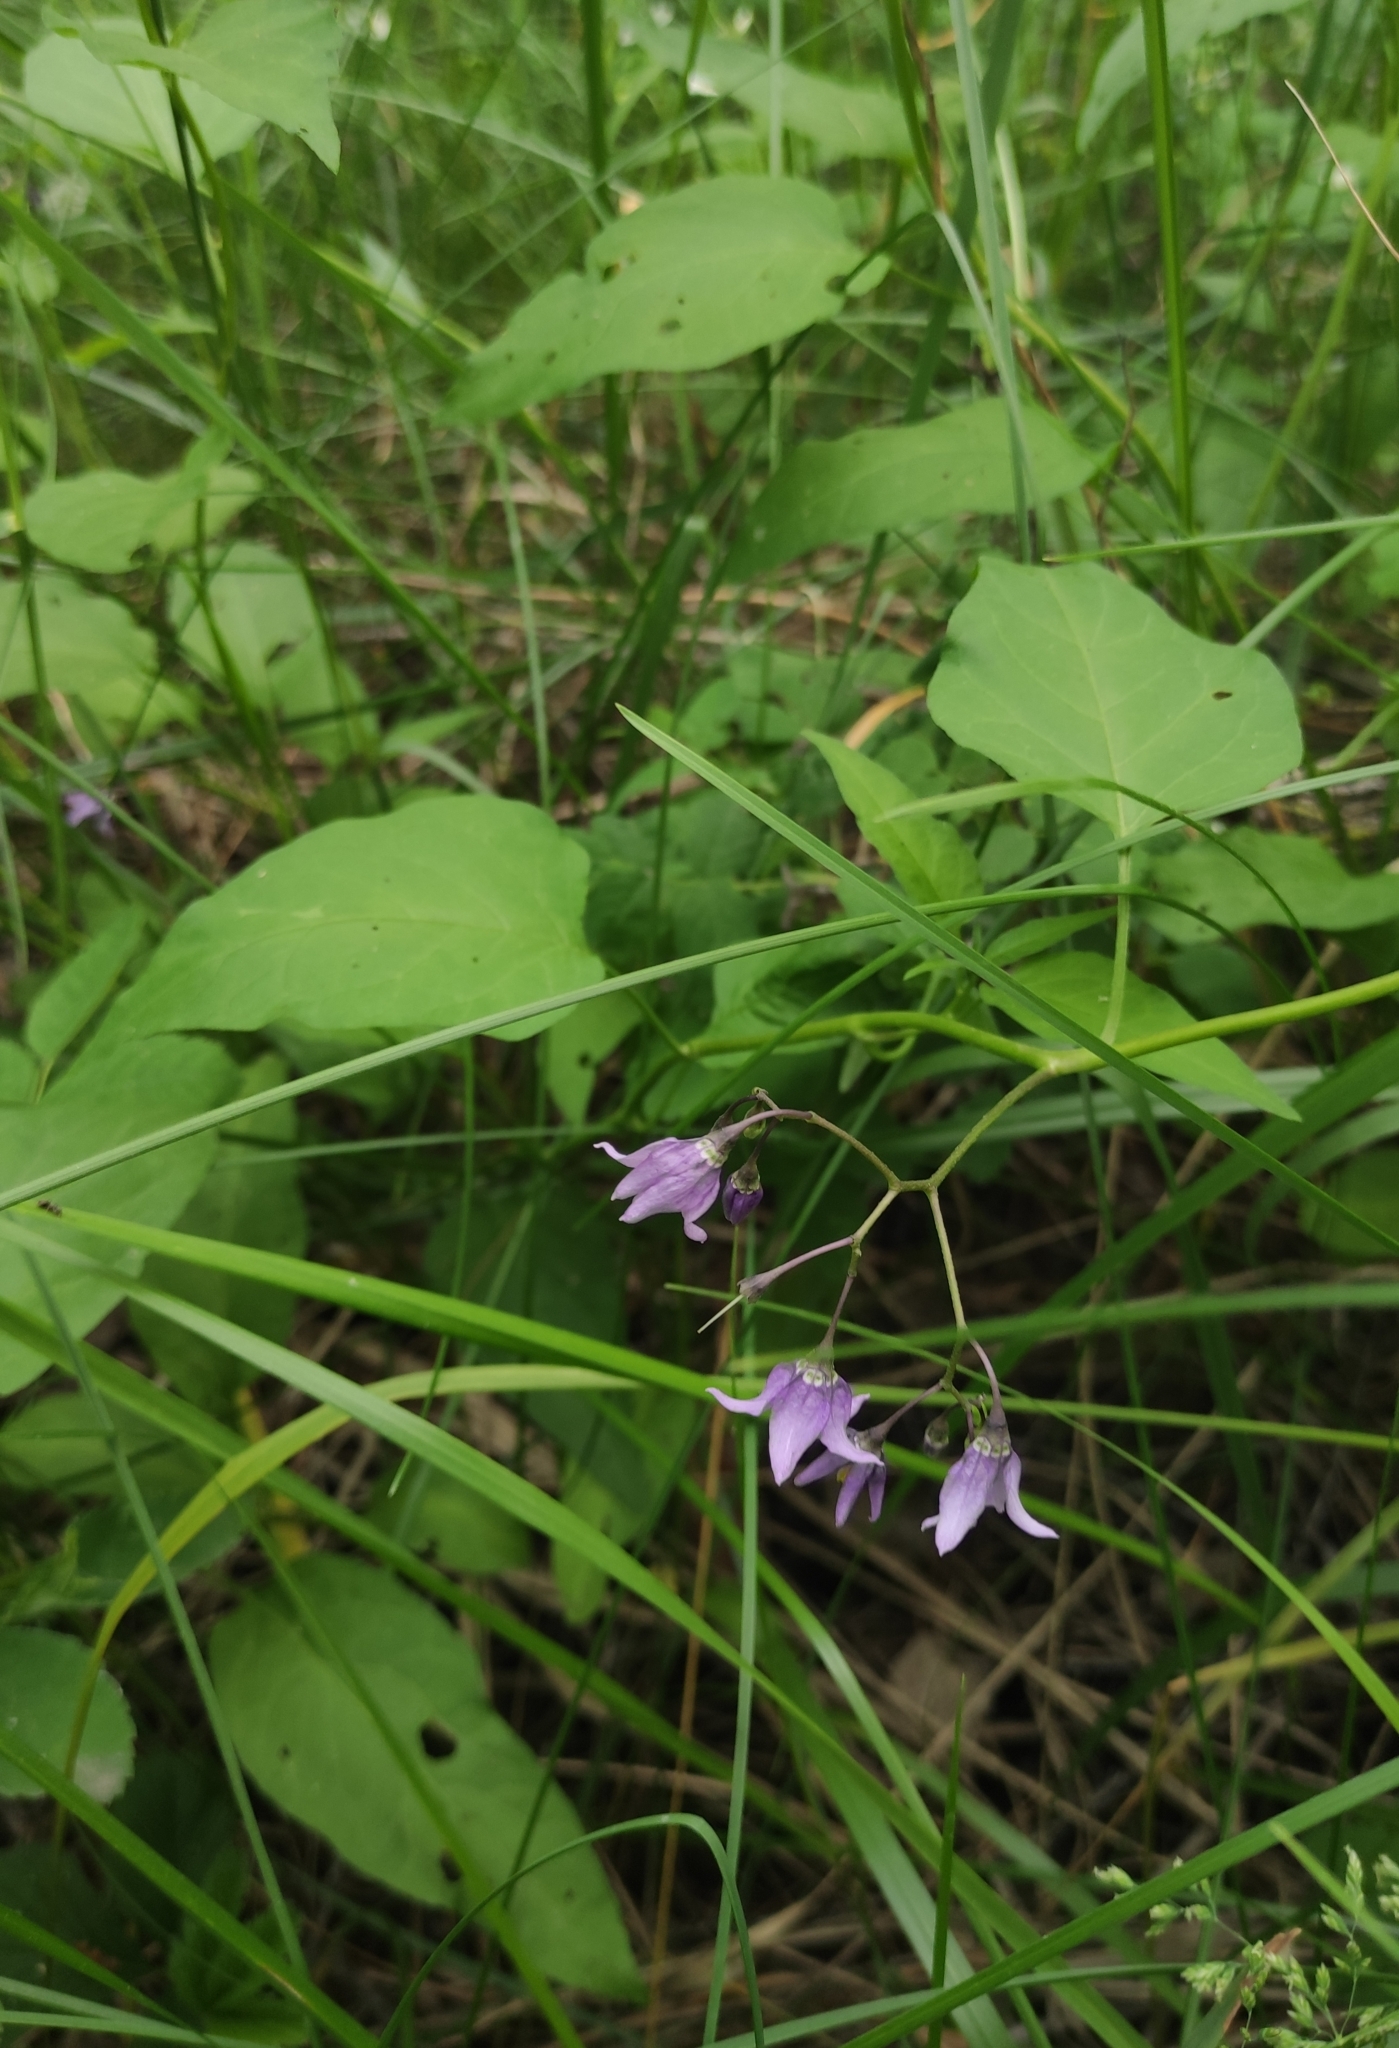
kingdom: Plantae
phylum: Tracheophyta
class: Magnoliopsida
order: Solanales
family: Solanaceae
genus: Solanum
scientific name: Solanum dulcamara
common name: Climbing nightshade
